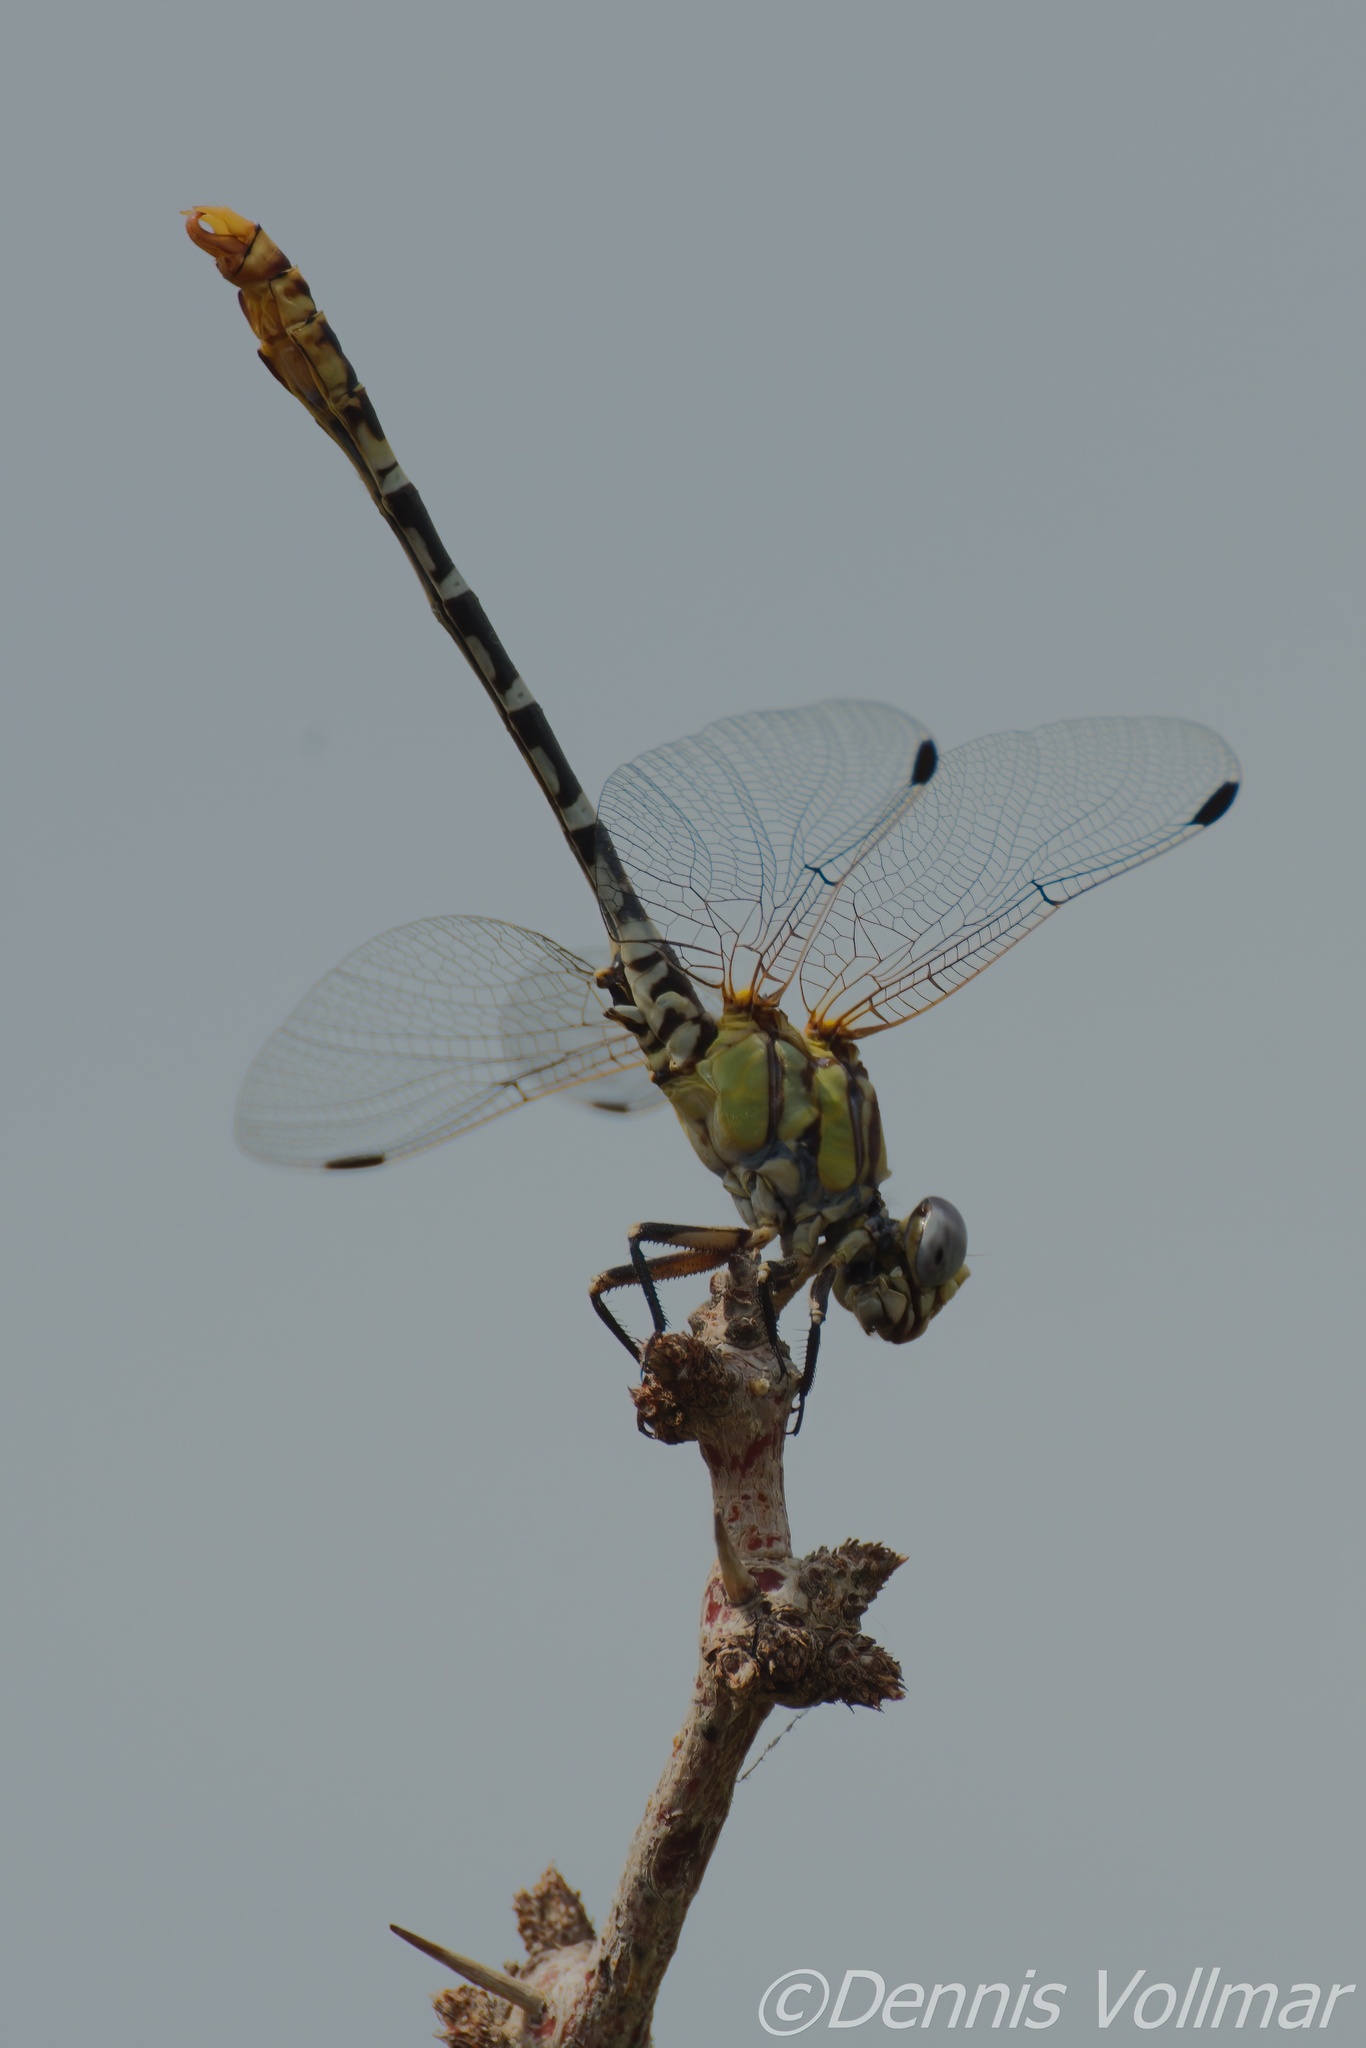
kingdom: Animalia
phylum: Arthropoda
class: Insecta
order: Odonata
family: Gomphidae
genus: Erpetogomphus
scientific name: Erpetogomphus designatus
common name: Eastern ringtail
